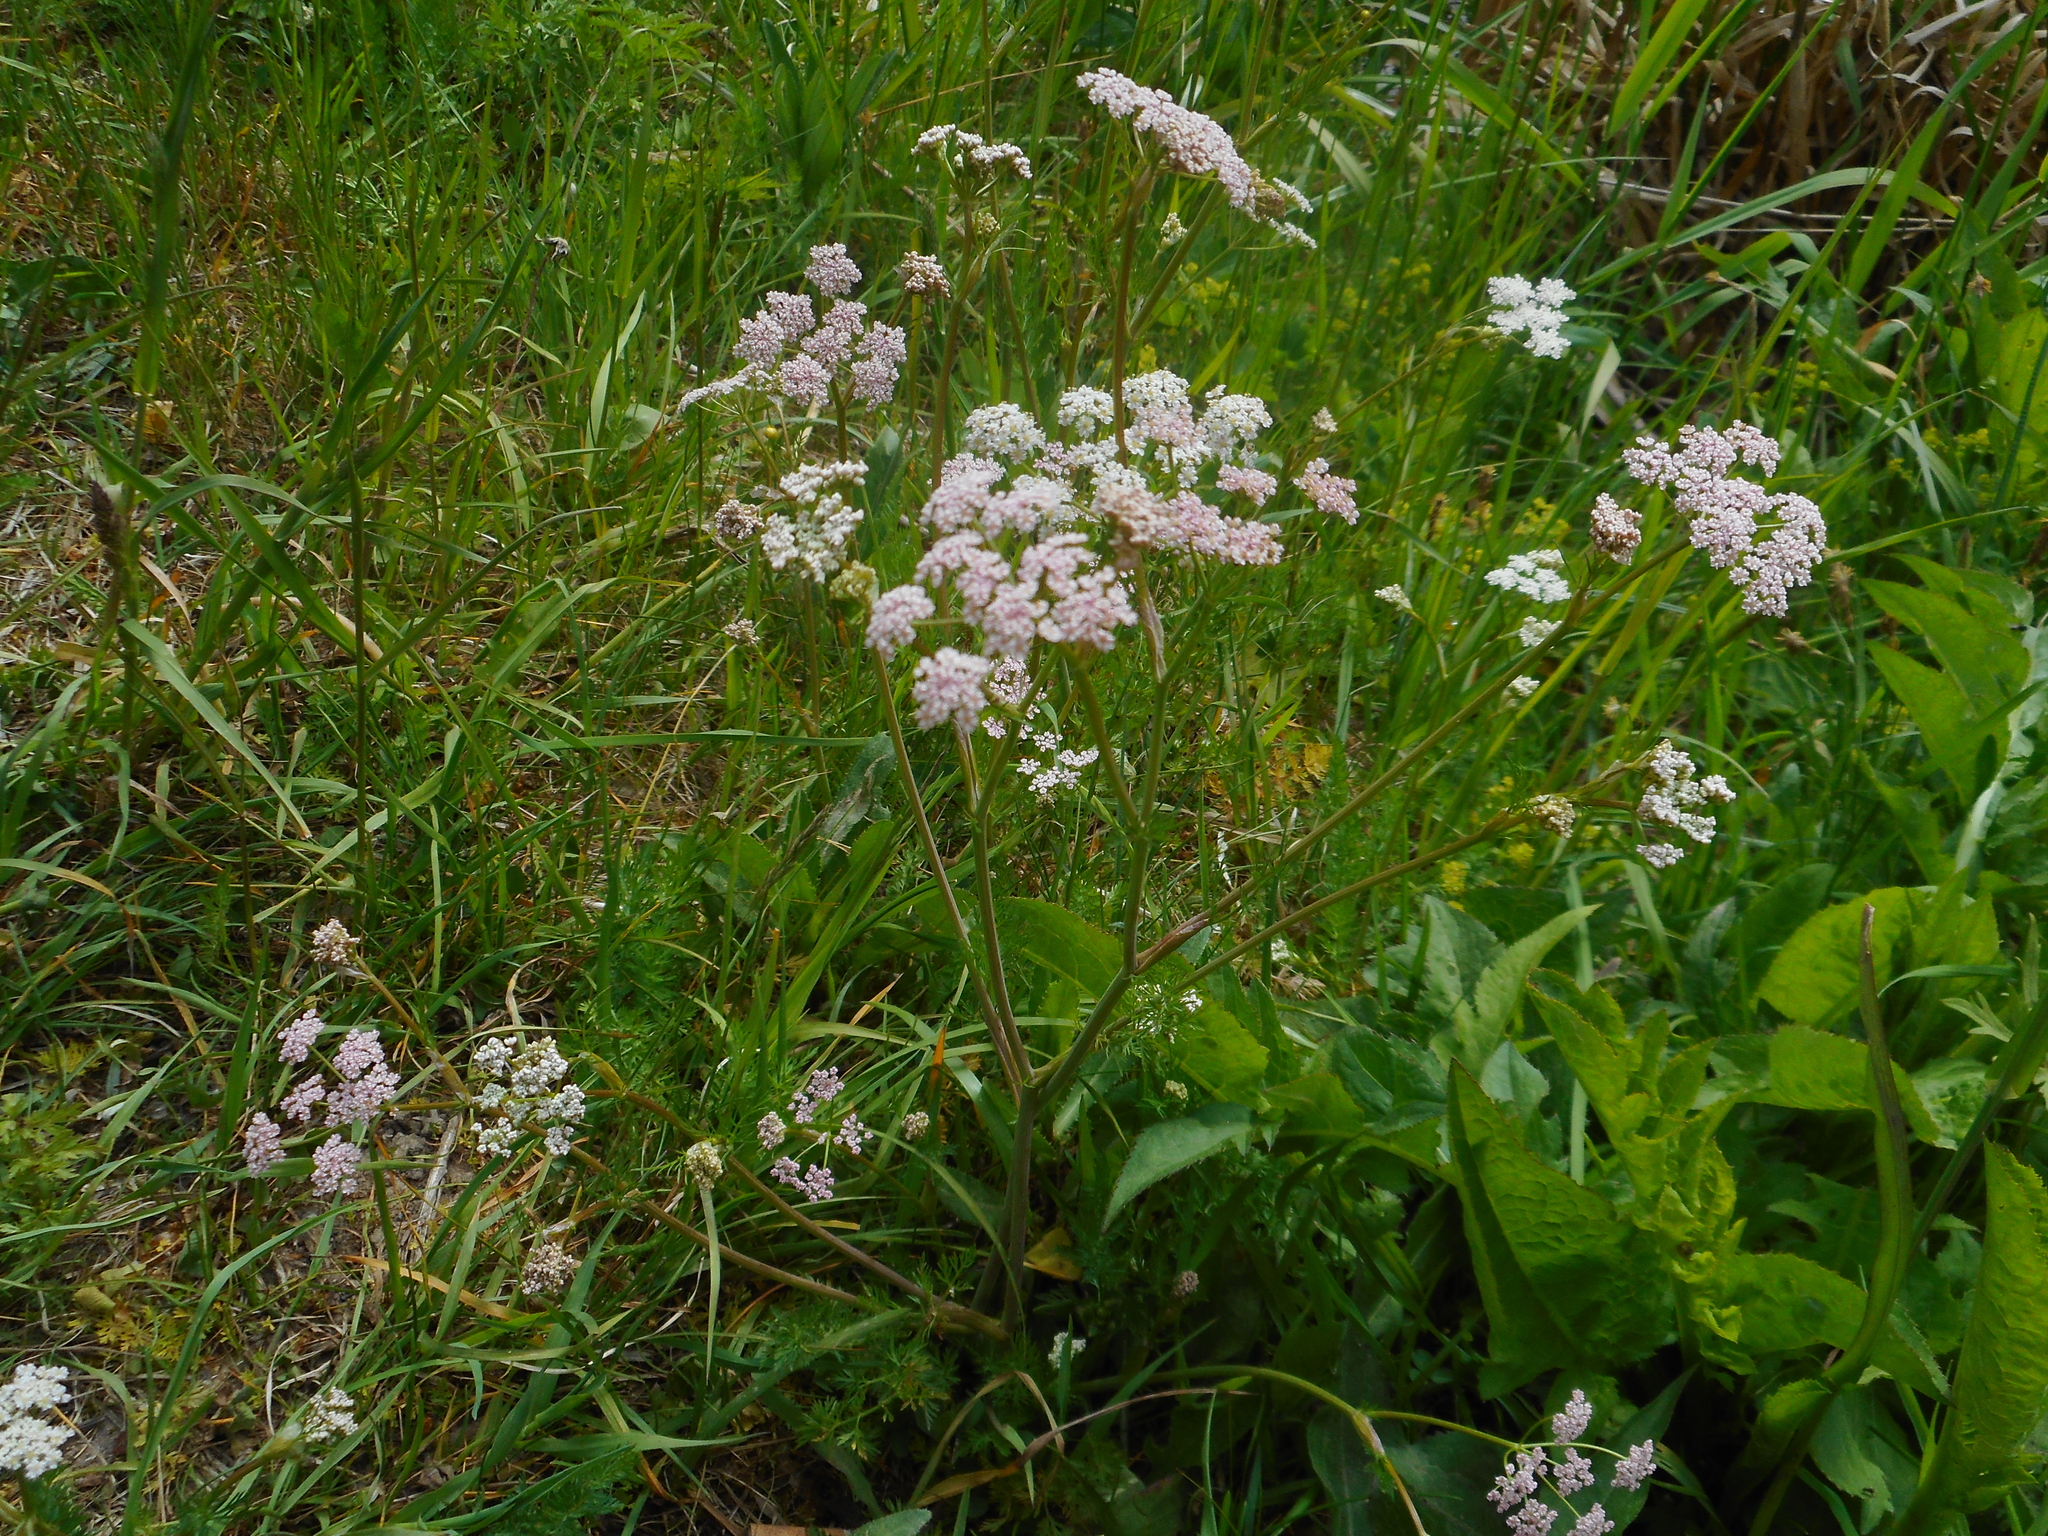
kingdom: Plantae
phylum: Tracheophyta
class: Magnoliopsida
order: Apiales
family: Apiaceae
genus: Carum
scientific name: Carum carvi
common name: Caraway
